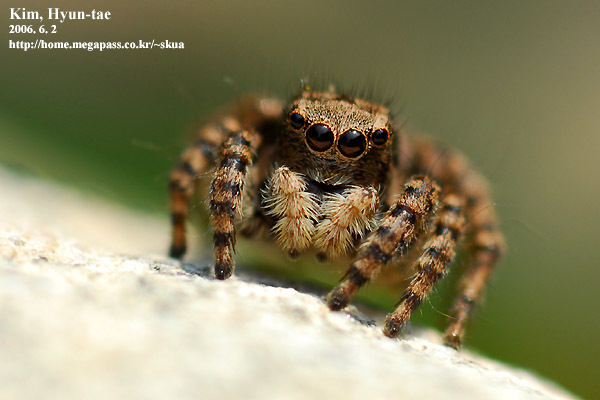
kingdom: Animalia
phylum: Arthropoda
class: Arachnida
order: Araneae
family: Salticidae
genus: Asianellus
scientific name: Asianellus festivus
